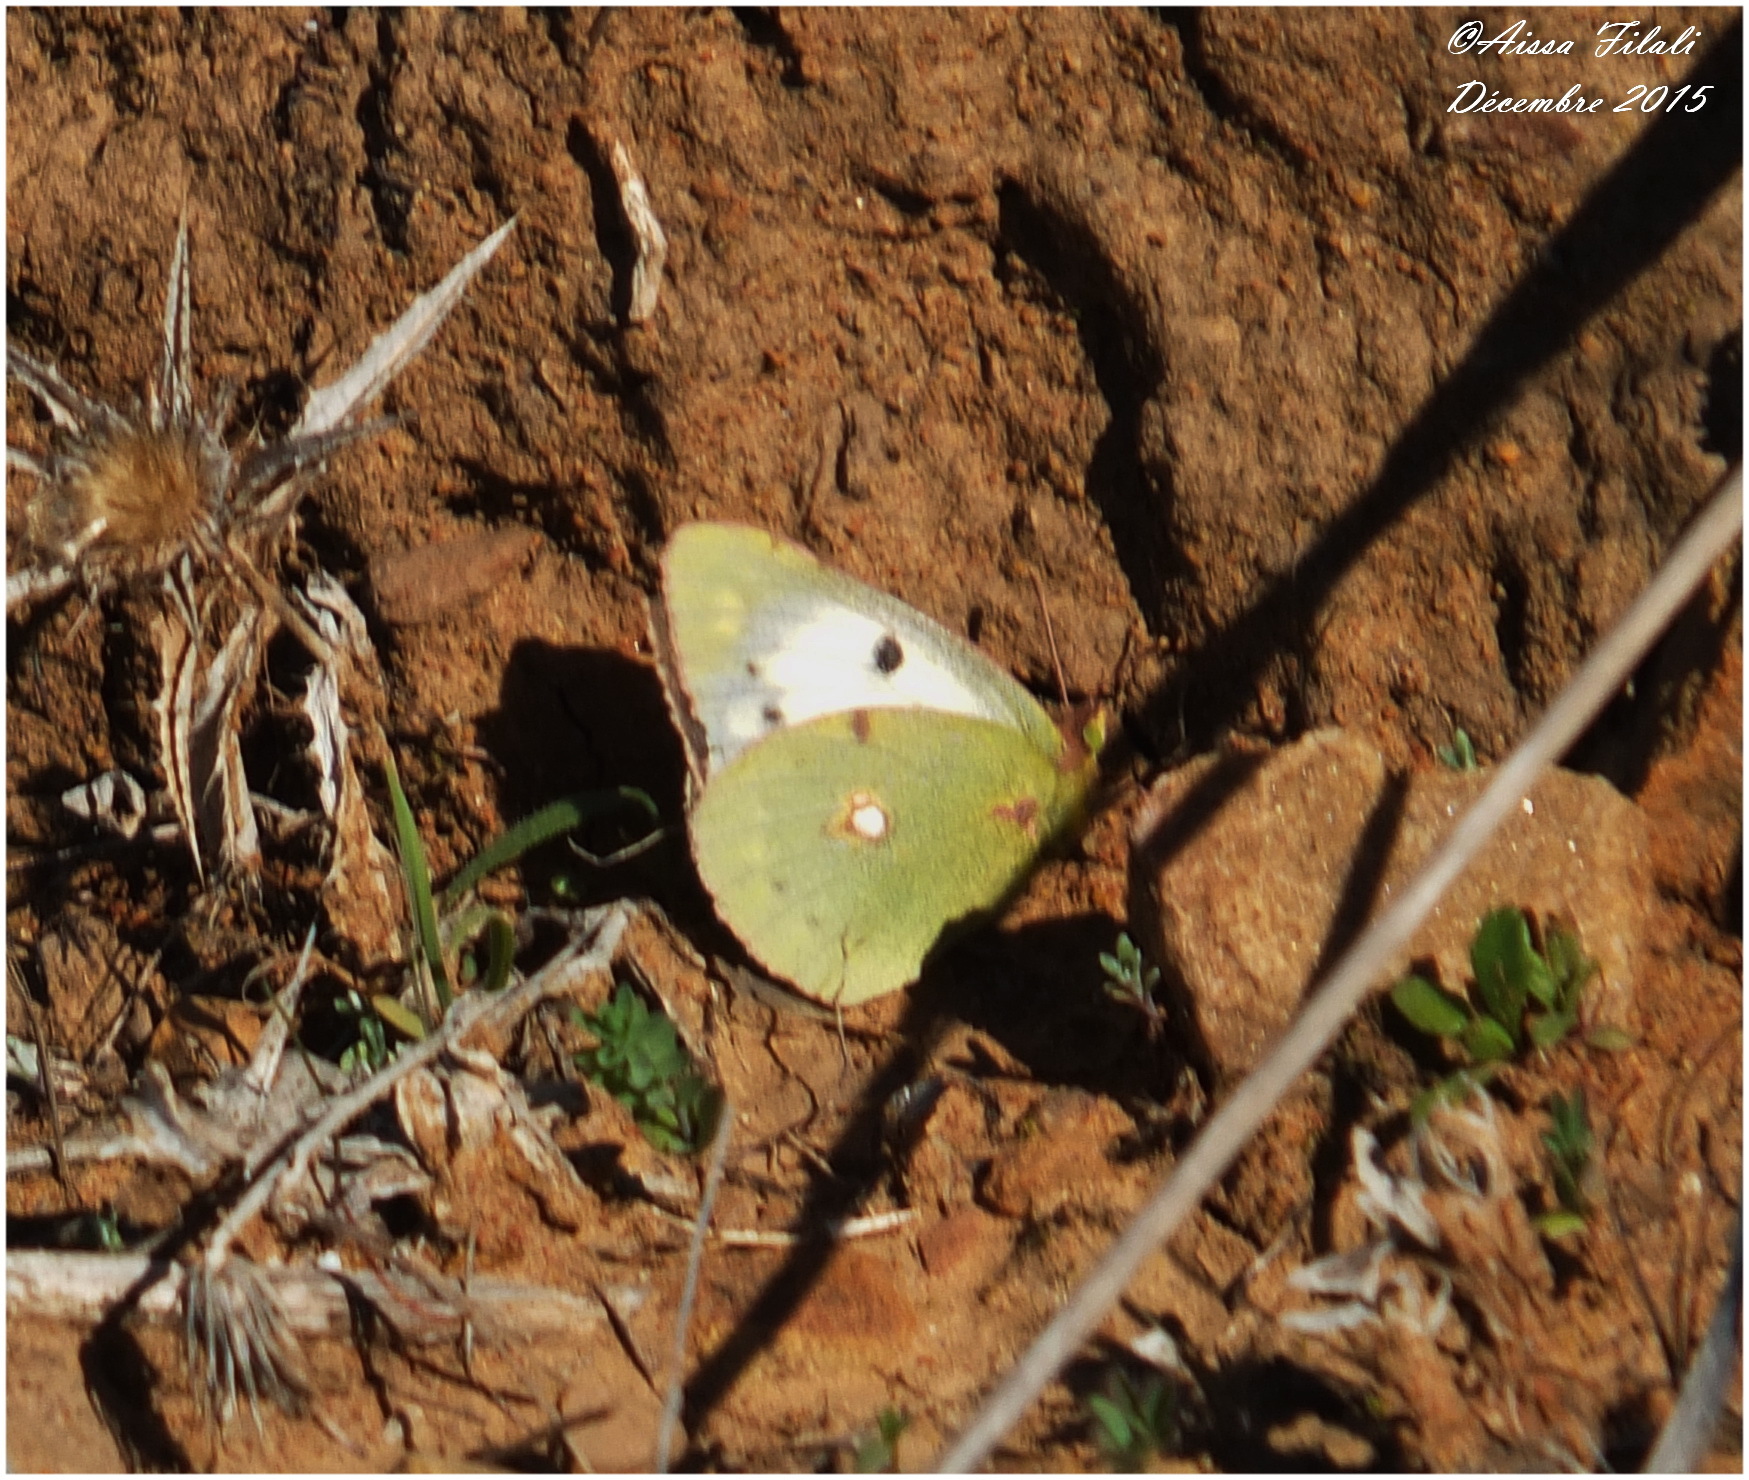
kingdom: Animalia
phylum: Arthropoda
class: Insecta
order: Lepidoptera
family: Pieridae
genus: Colias
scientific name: Colias croceus
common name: Clouded yellow
